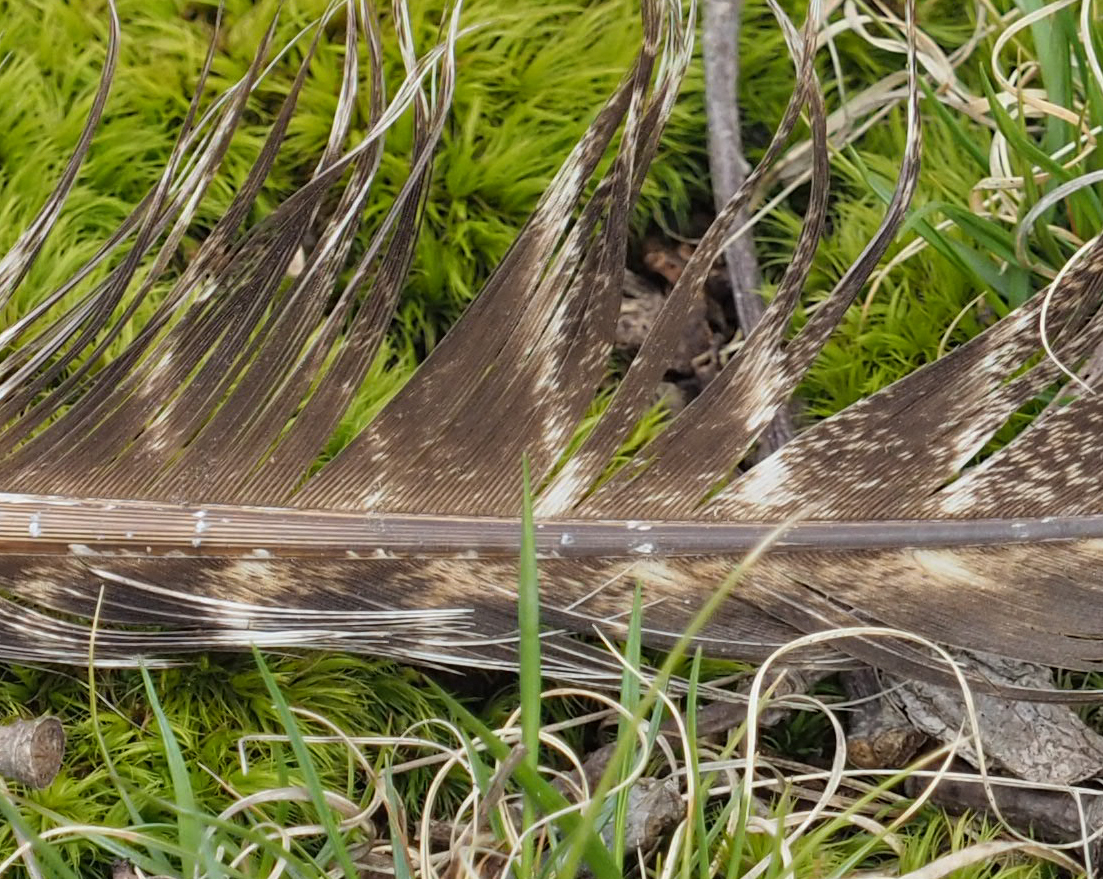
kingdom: Animalia
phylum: Chordata
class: Aves
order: Galliformes
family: Phasianidae
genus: Meleagris
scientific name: Meleagris gallopavo
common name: Wild turkey
